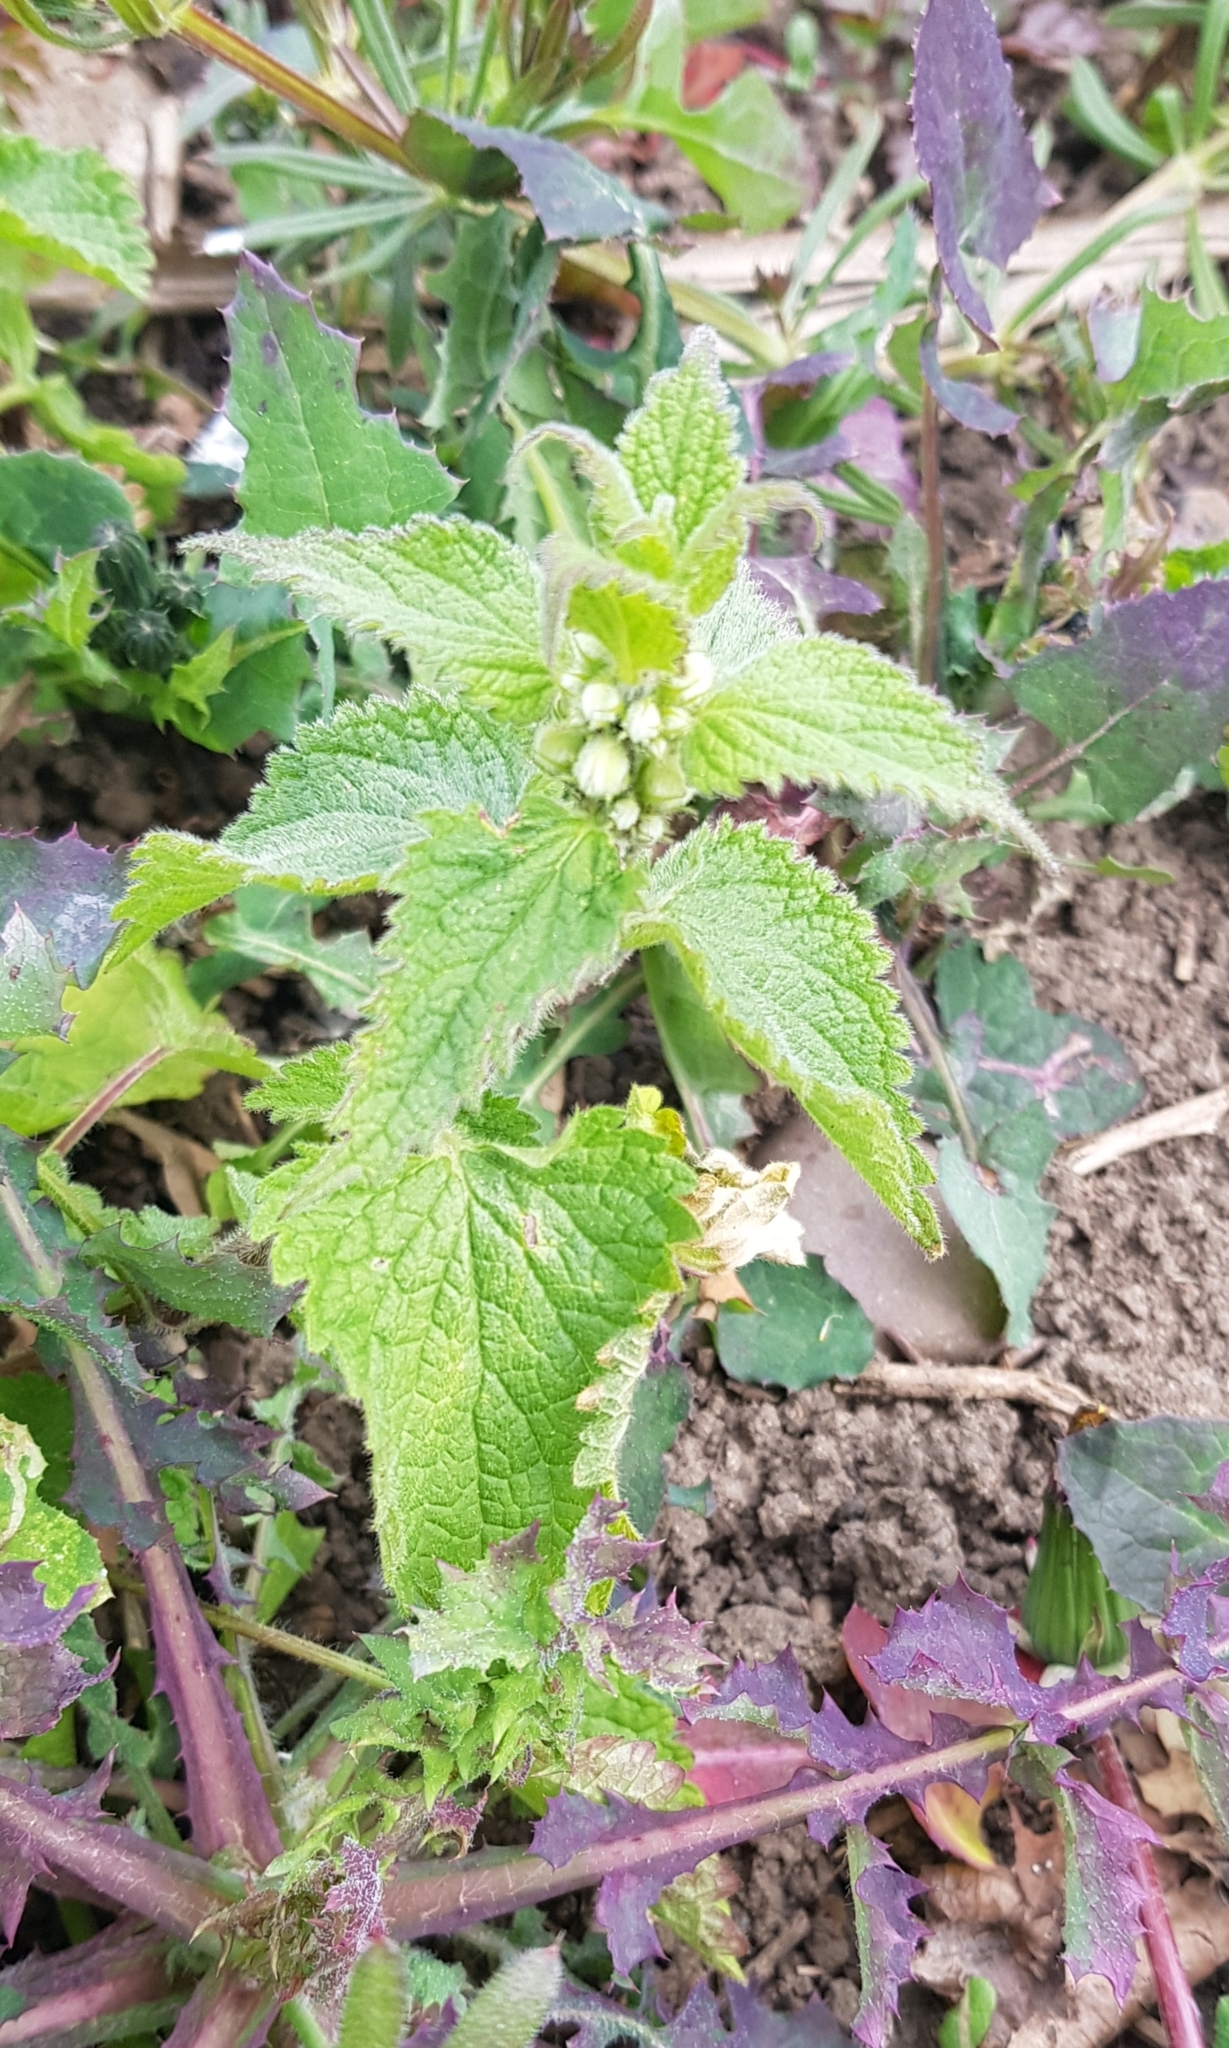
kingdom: Plantae
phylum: Tracheophyta
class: Magnoliopsida
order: Lamiales
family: Lamiaceae
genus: Lamium
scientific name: Lamium album
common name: White dead-nettle
